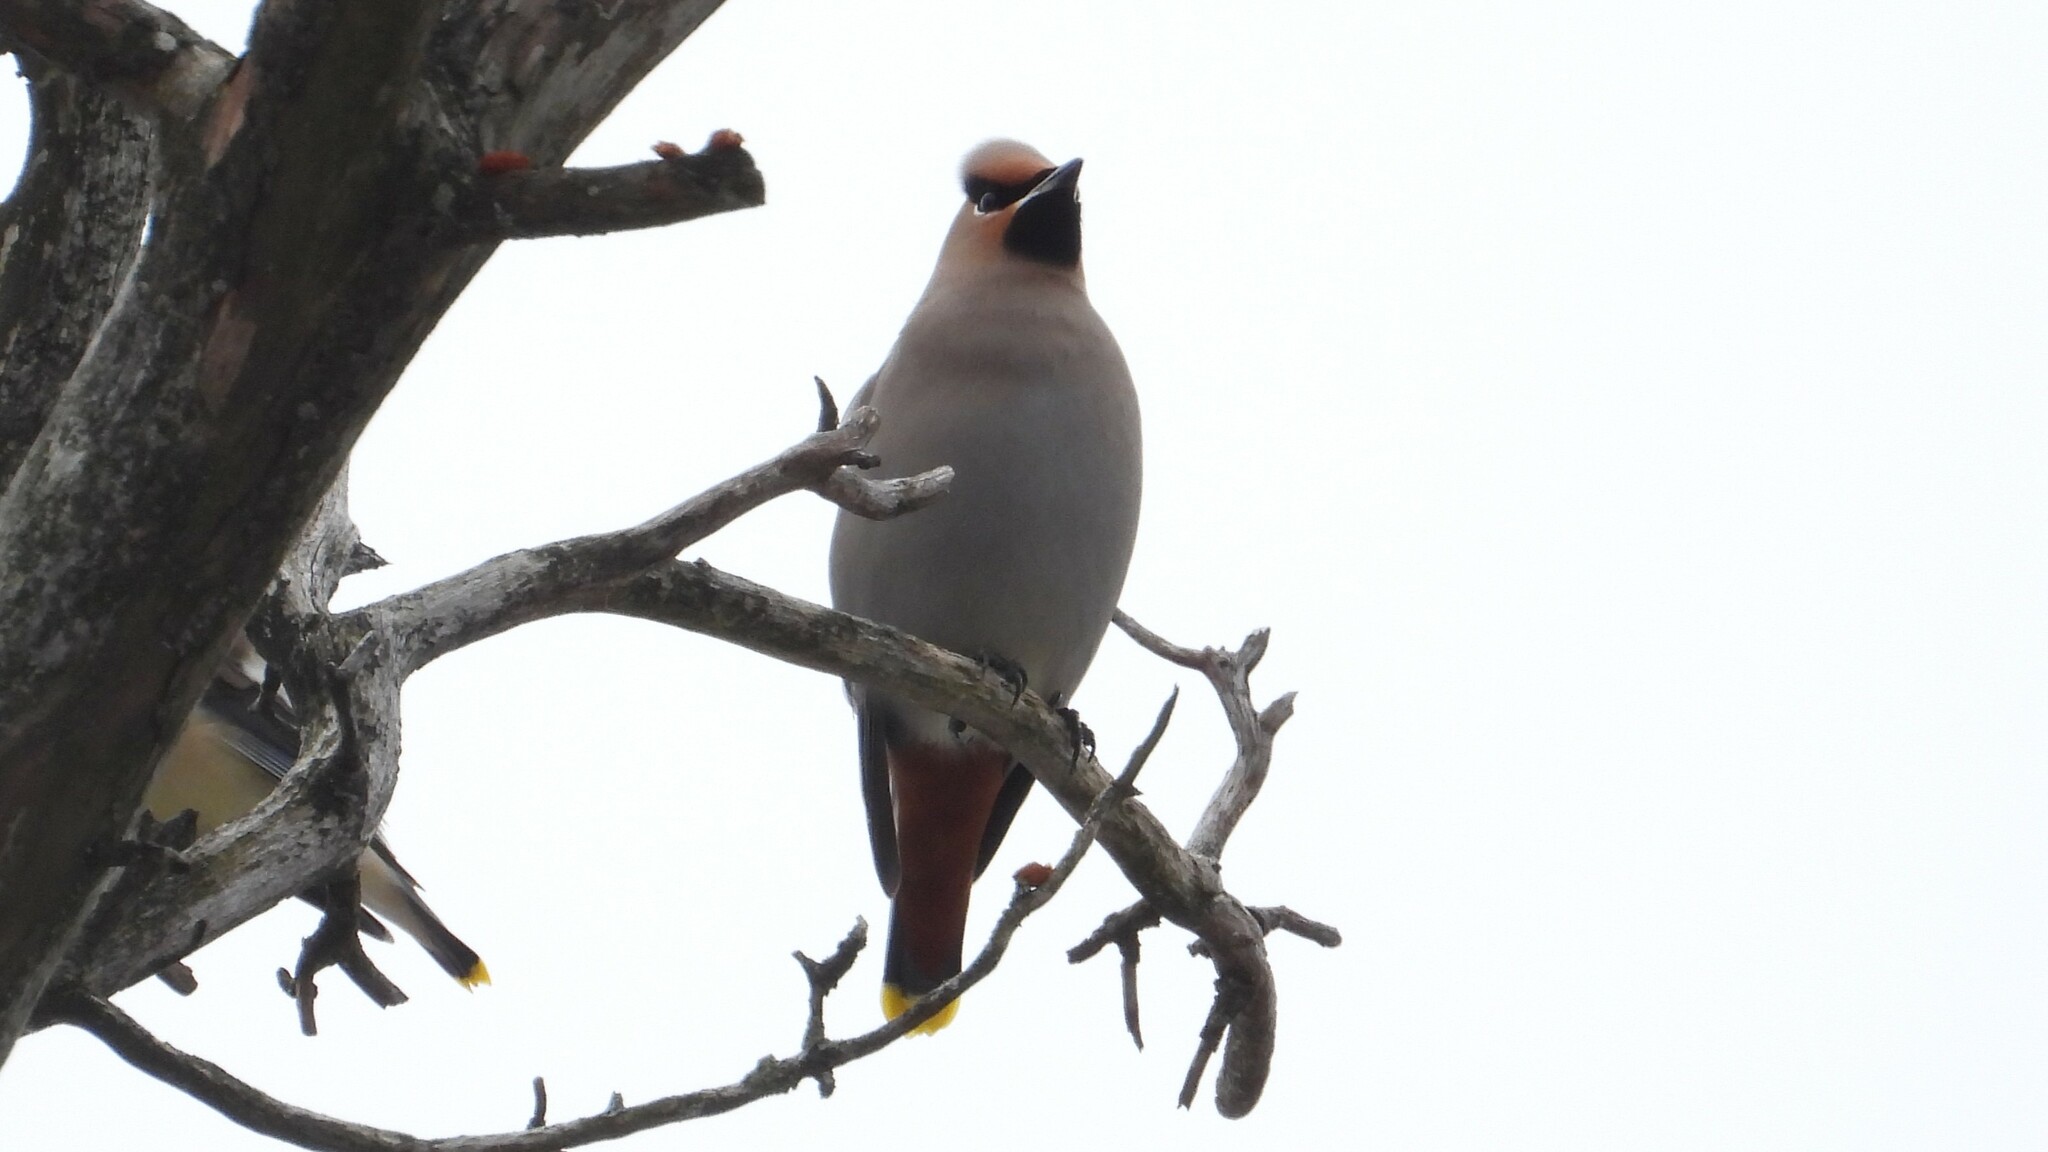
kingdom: Animalia
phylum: Chordata
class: Aves
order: Passeriformes
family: Bombycillidae
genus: Bombycilla
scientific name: Bombycilla garrulus
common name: Bohemian waxwing
